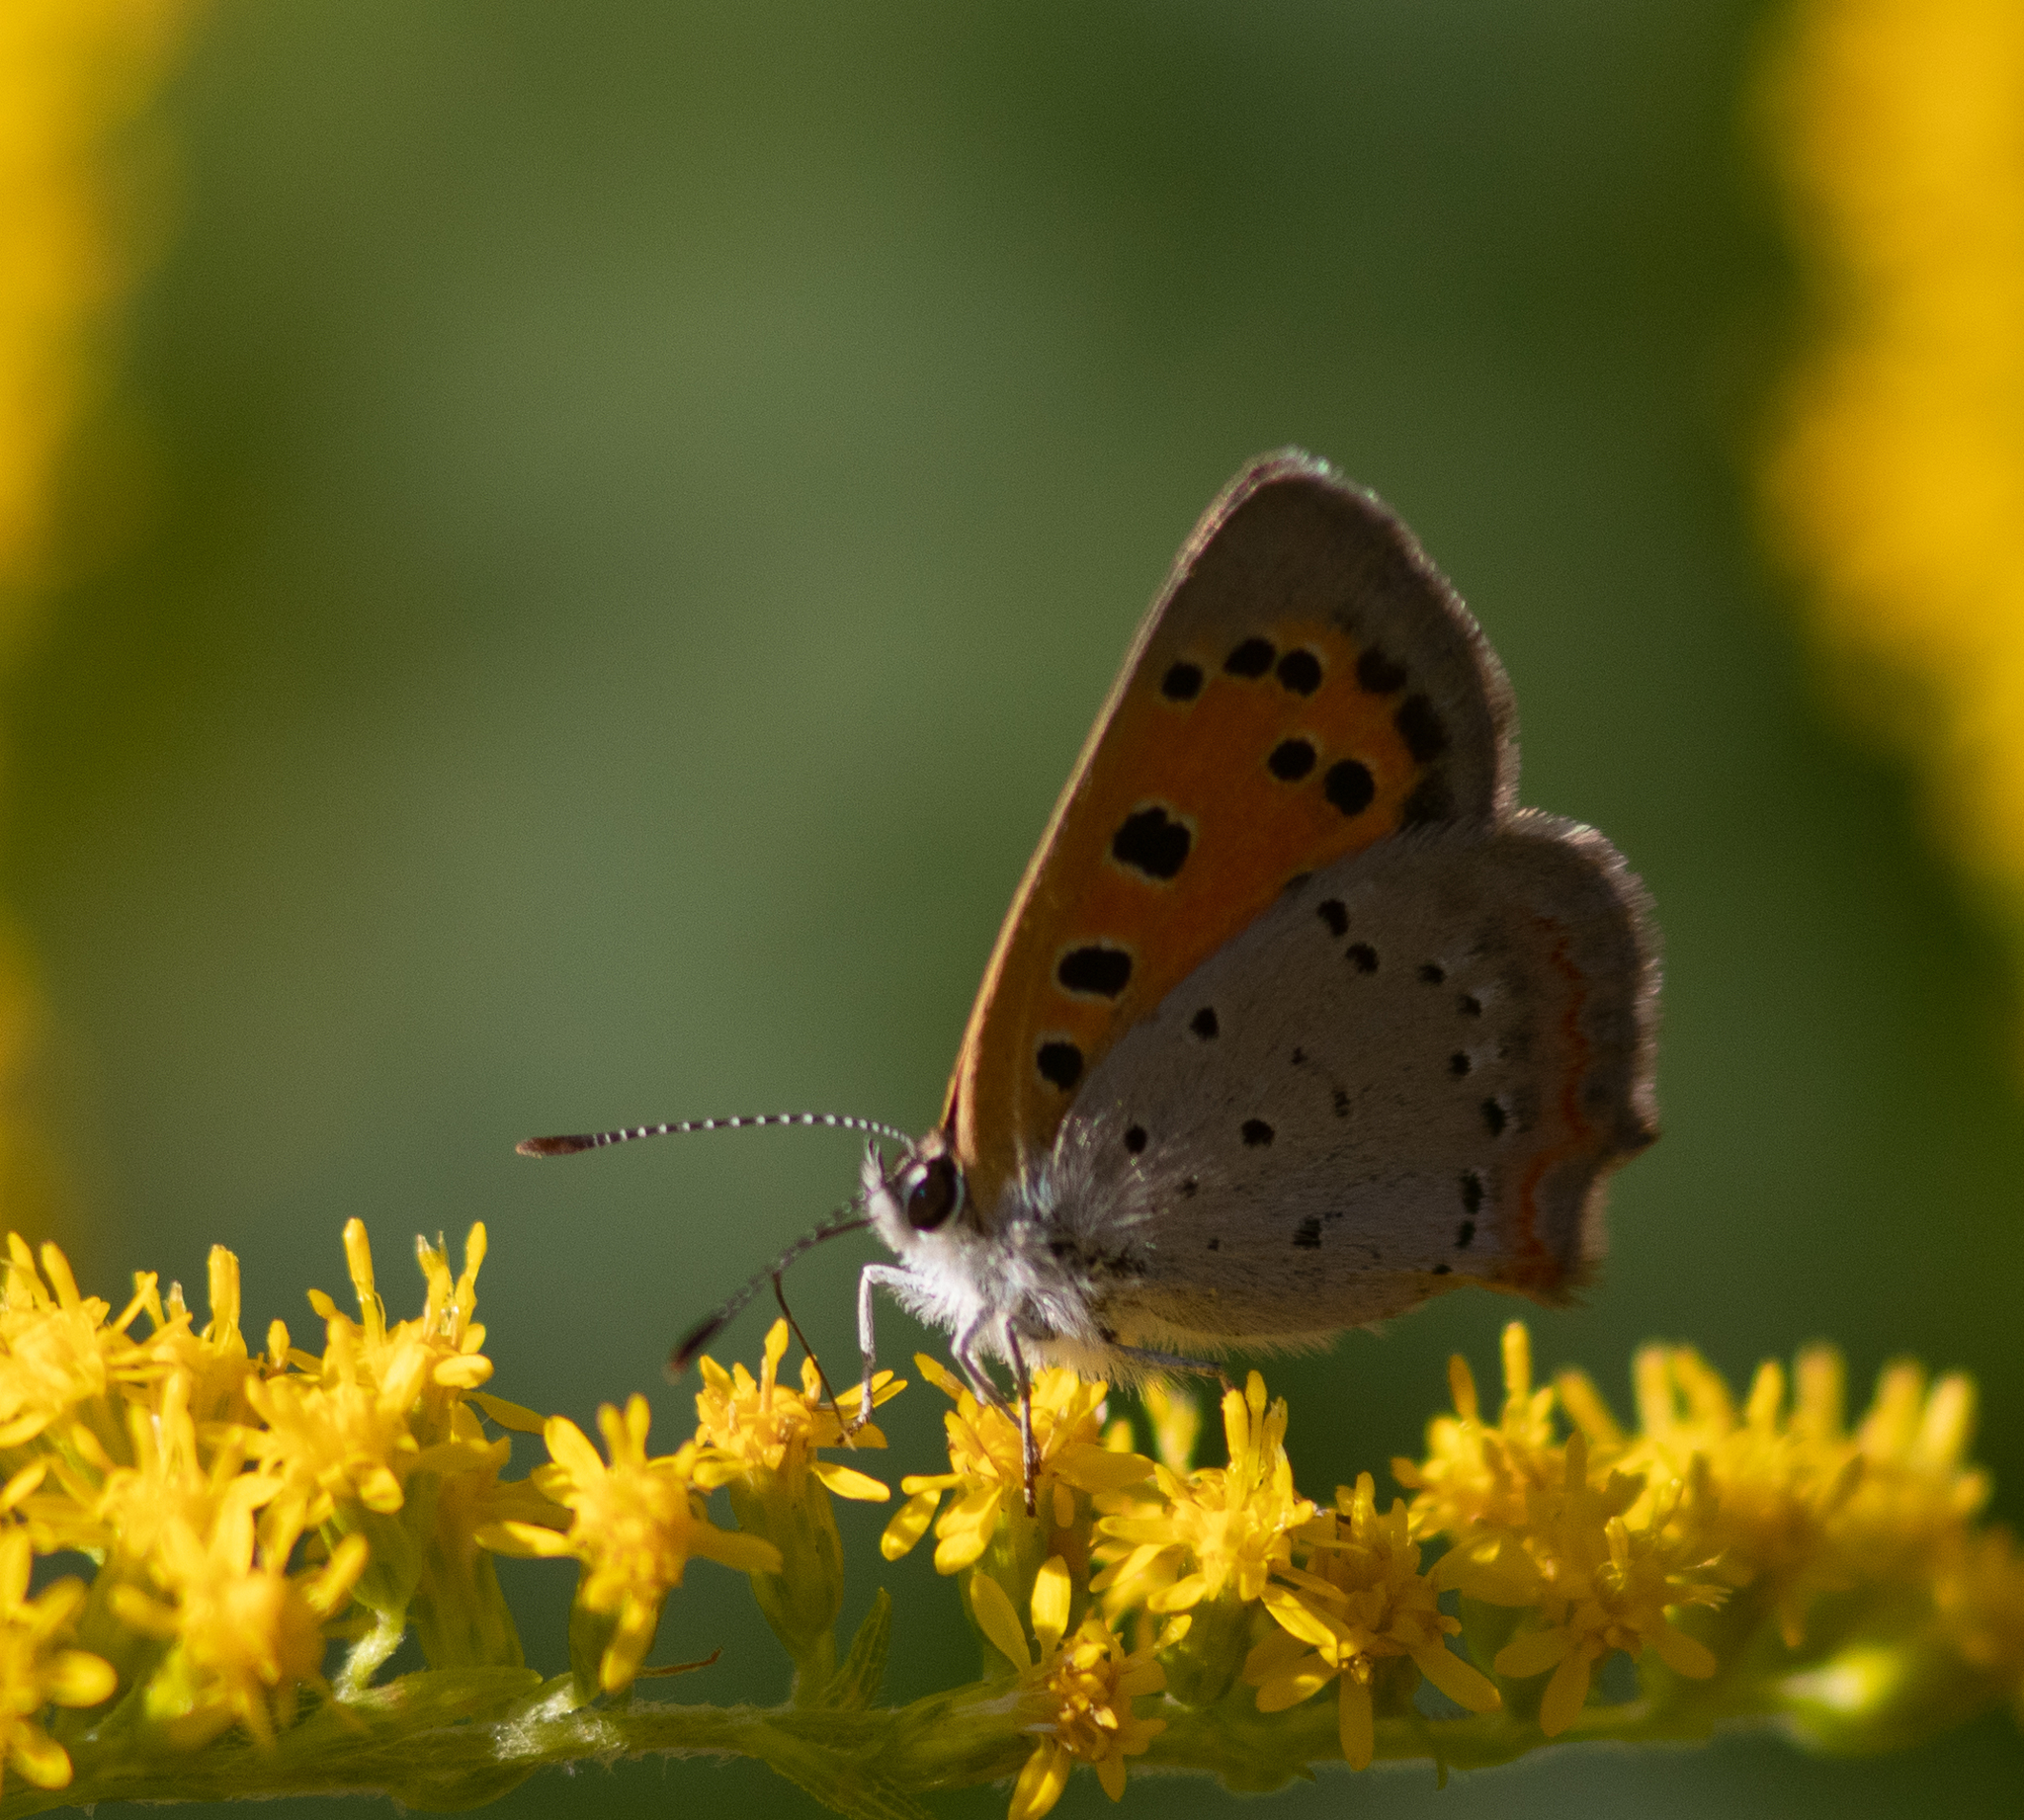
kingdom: Animalia
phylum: Arthropoda
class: Insecta
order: Lepidoptera
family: Lycaenidae
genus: Lycaena
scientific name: Lycaena hypophlaeas
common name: American copper
